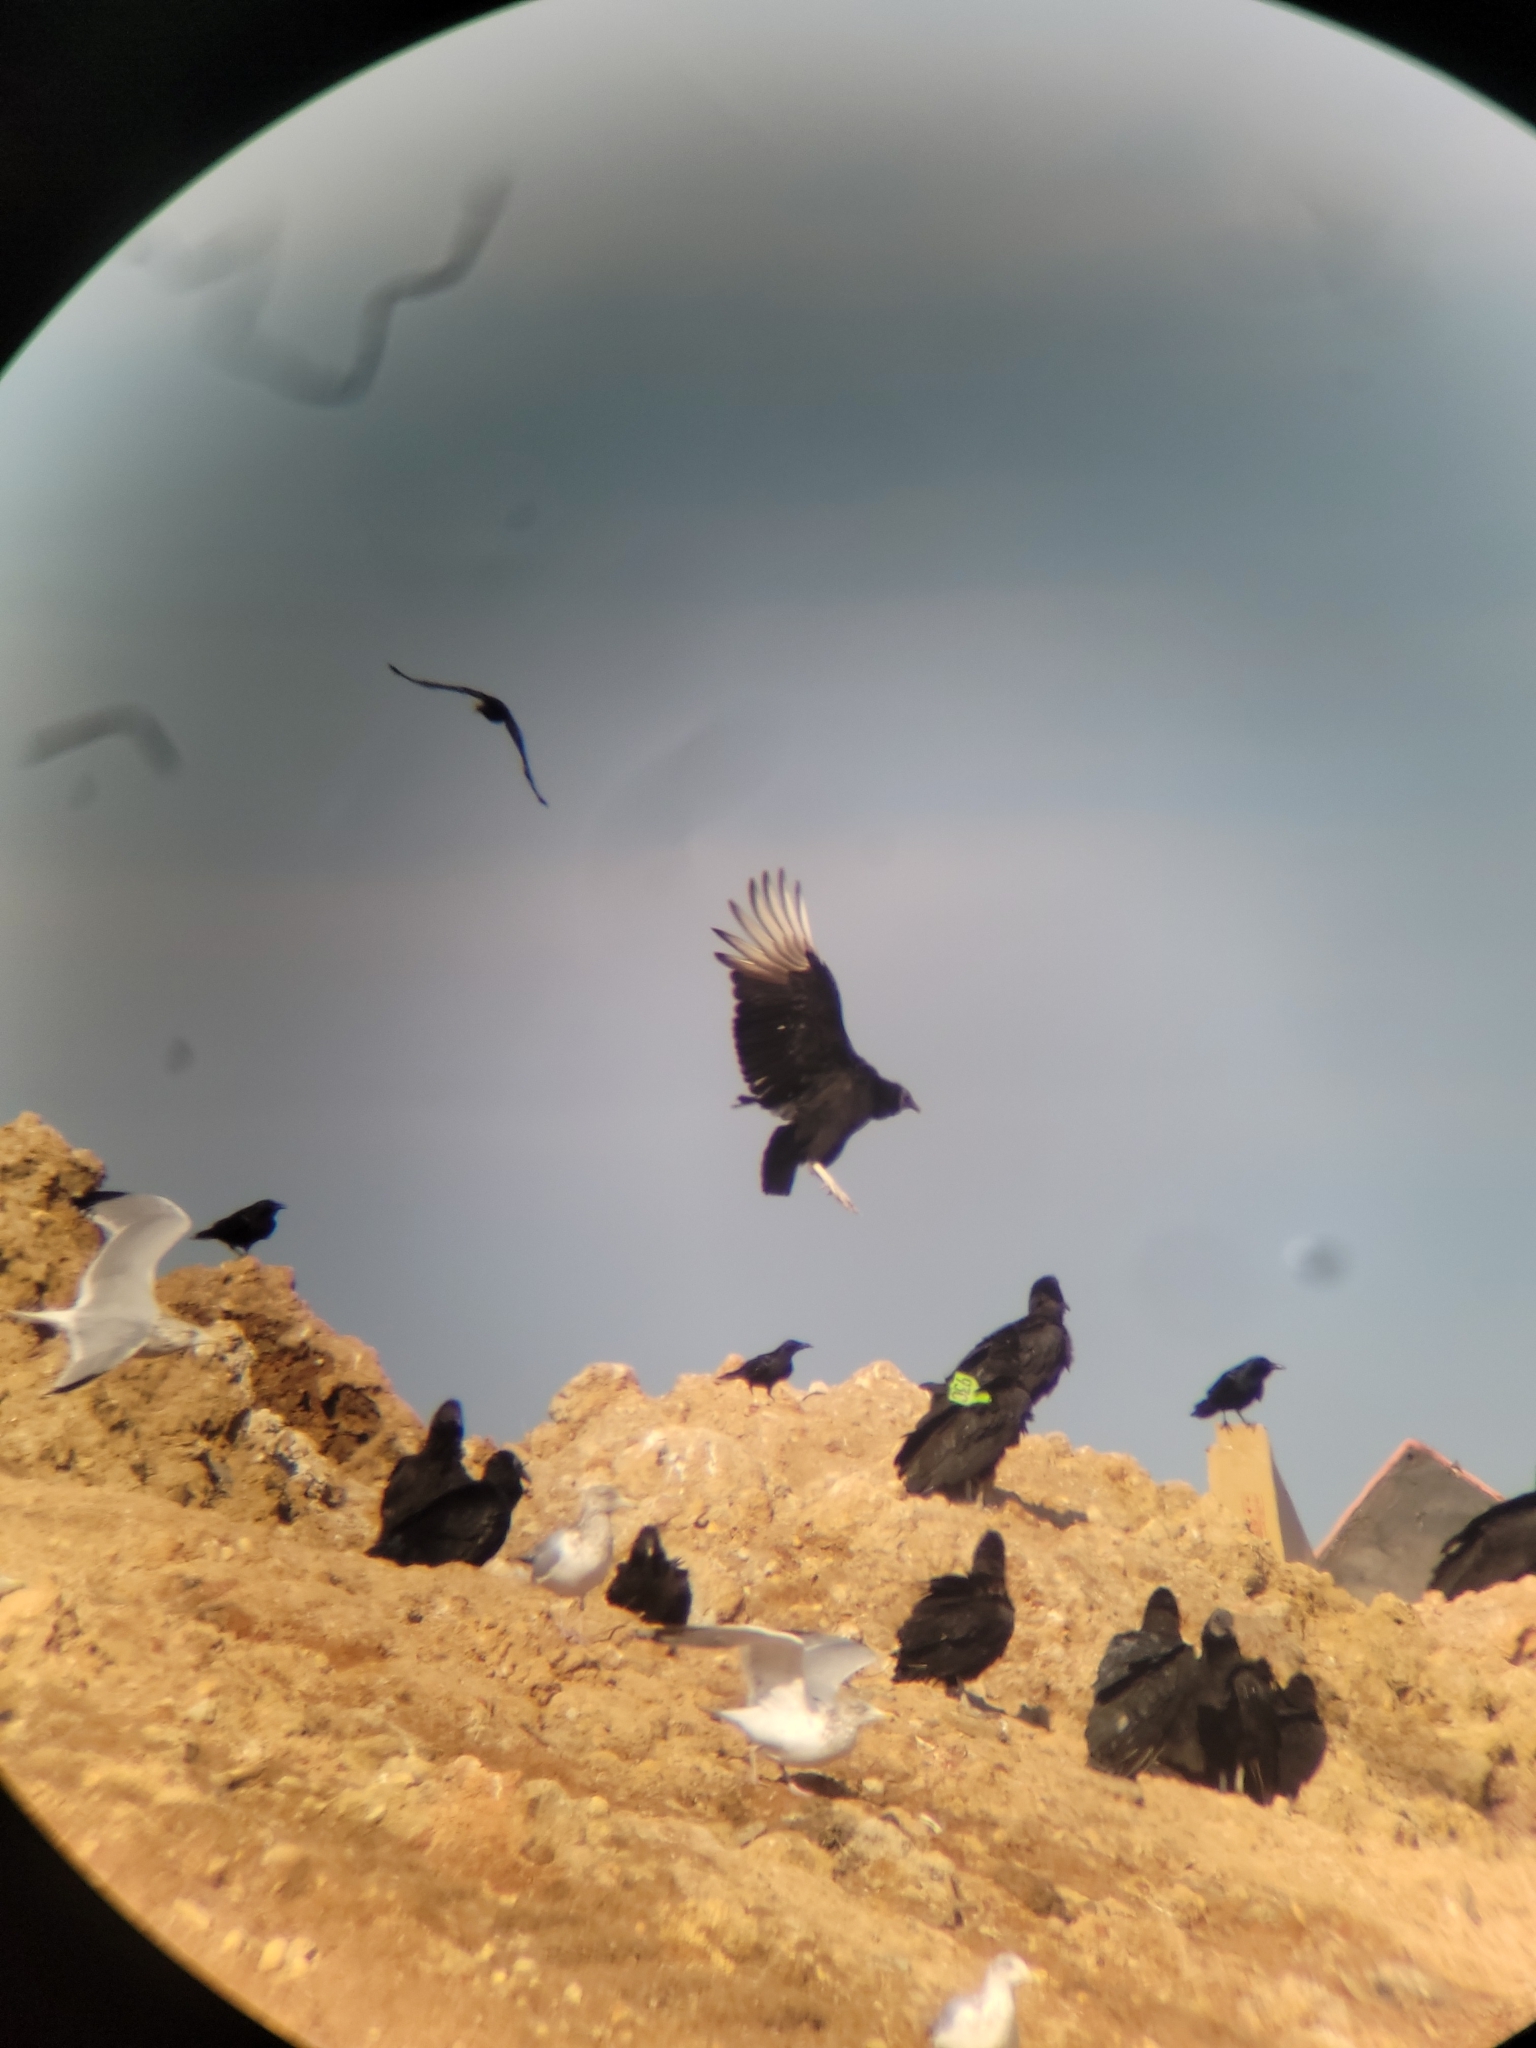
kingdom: Animalia
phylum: Chordata
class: Aves
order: Accipitriformes
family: Cathartidae
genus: Coragyps
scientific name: Coragyps atratus
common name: Black vulture
